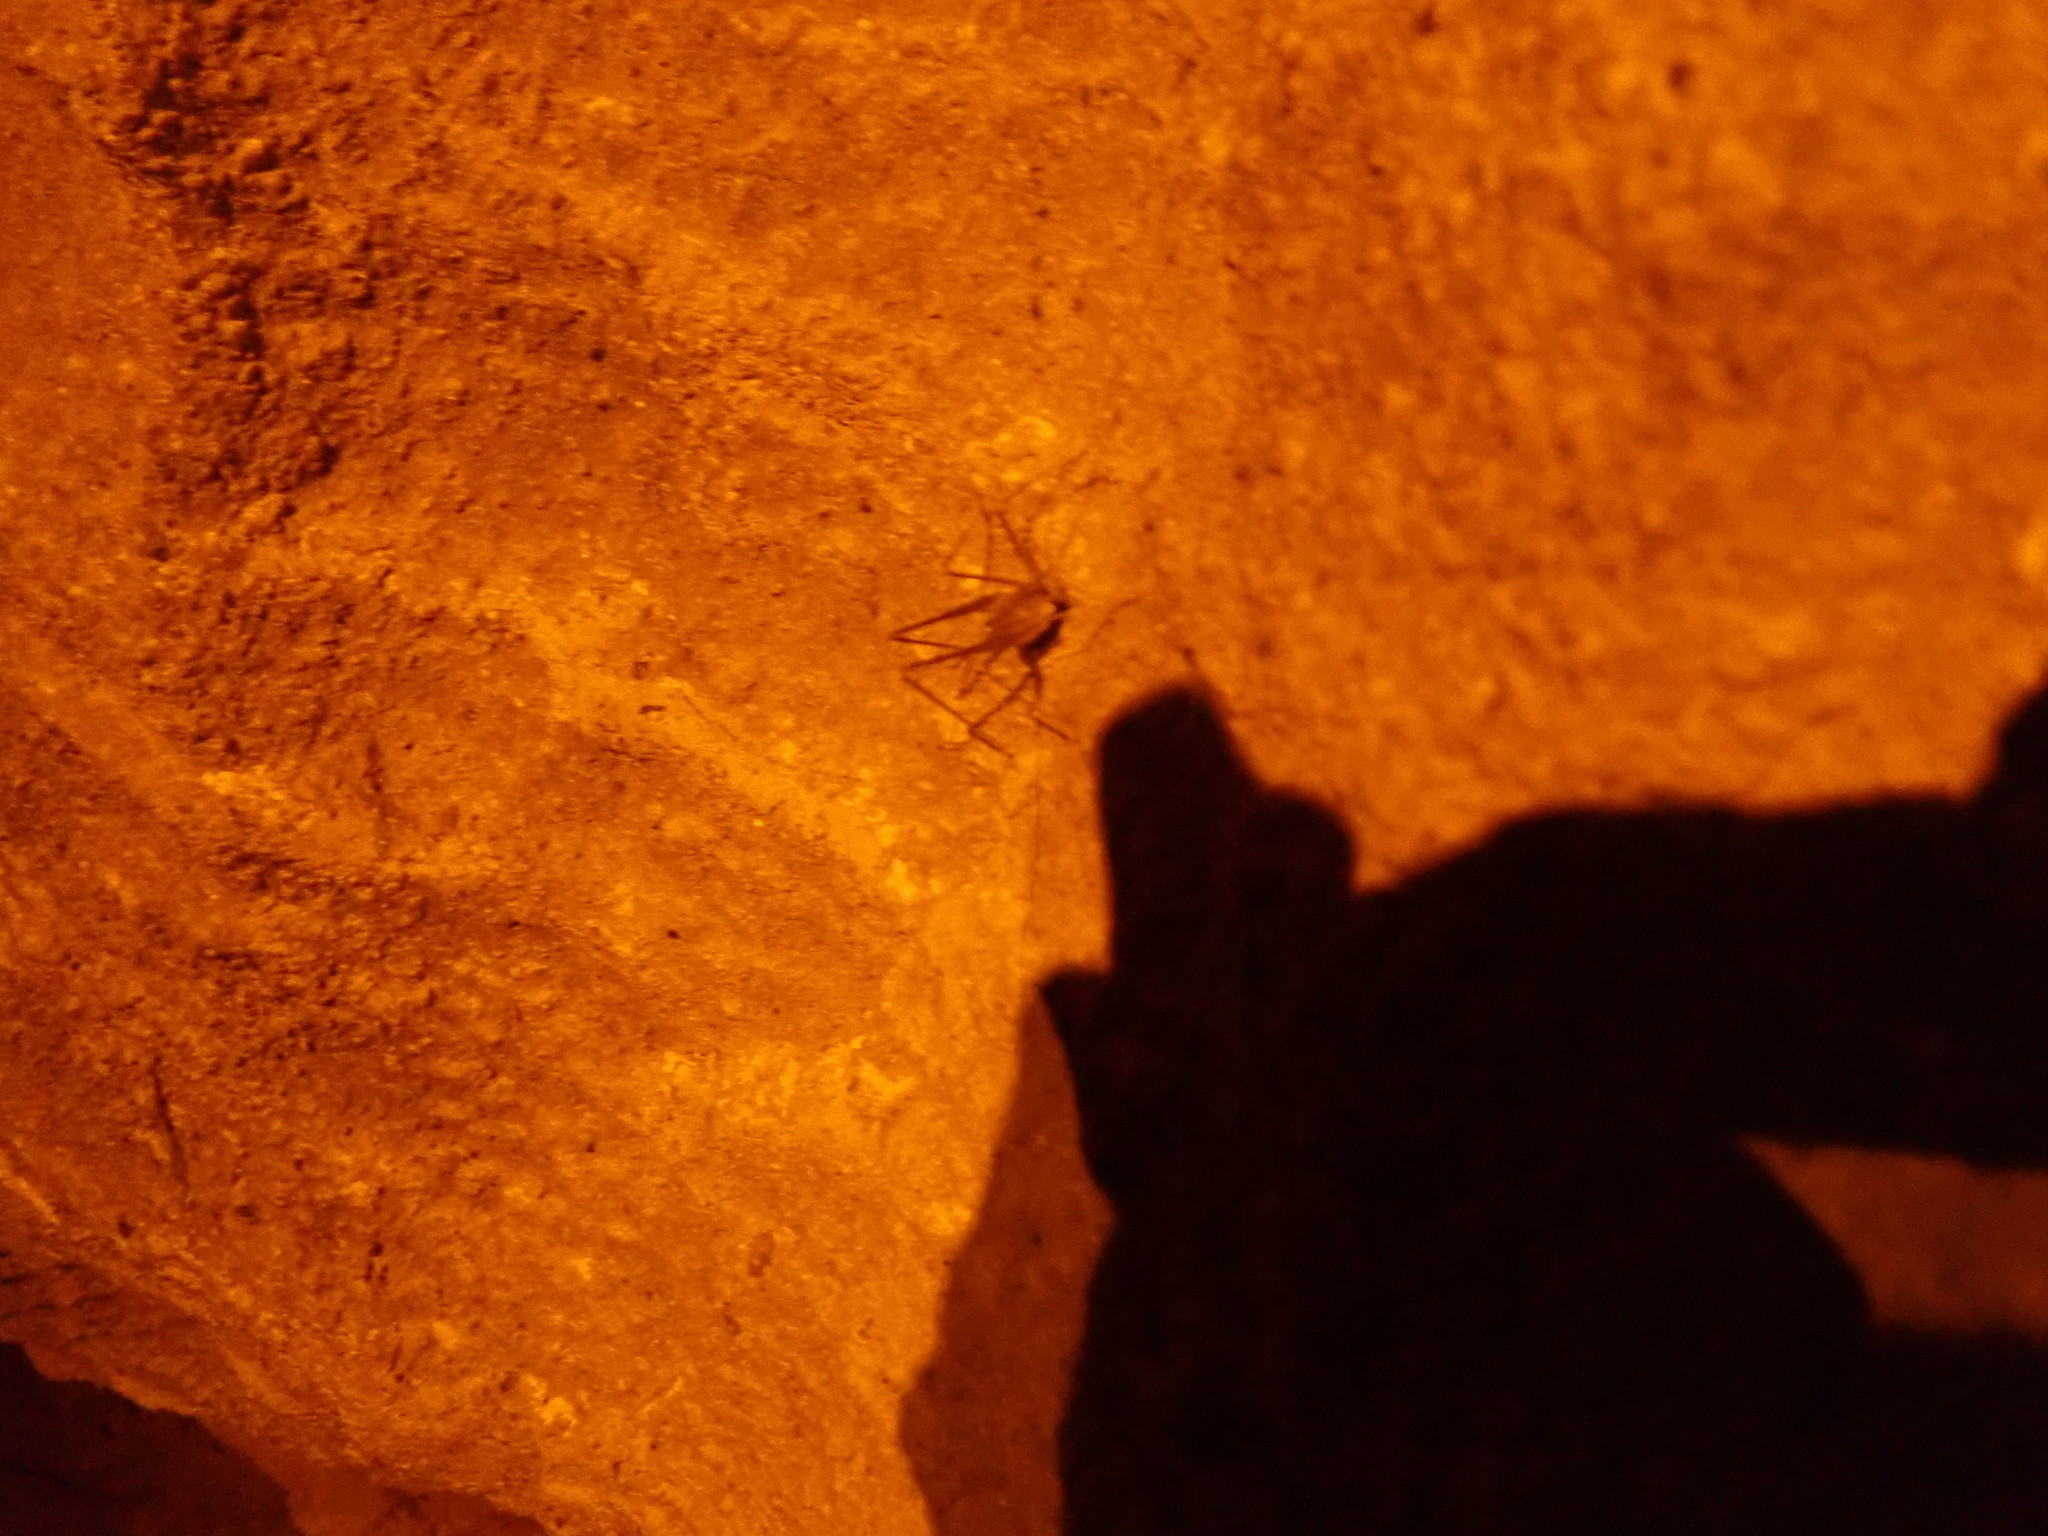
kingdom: Animalia
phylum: Arthropoda
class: Insecta
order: Orthoptera
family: Rhaphidophoridae
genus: Hadenoecus
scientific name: Hadenoecus subterraneus
